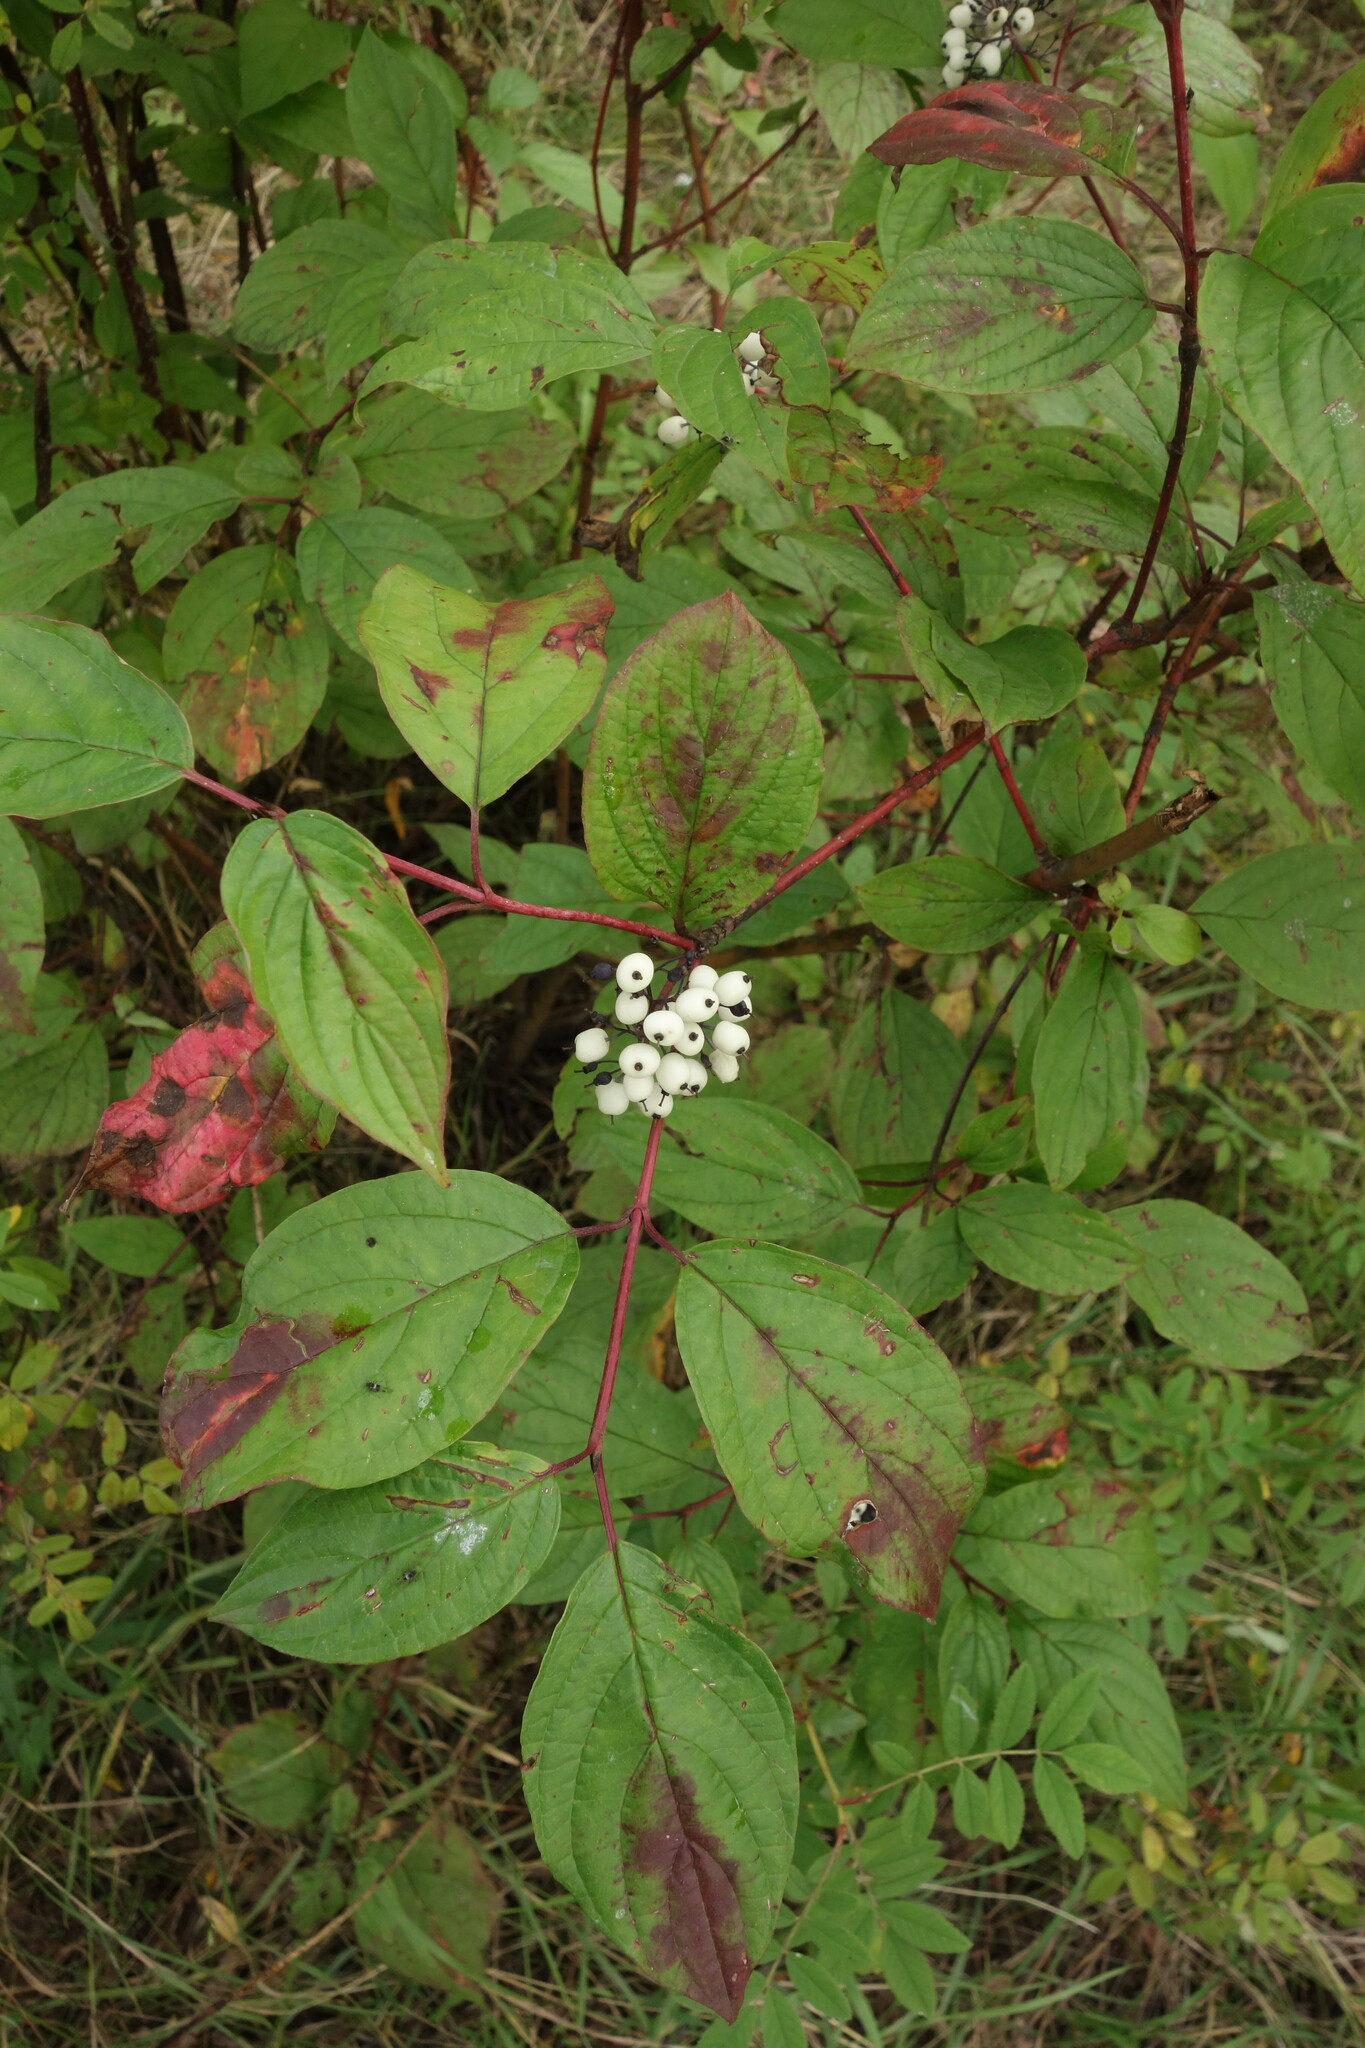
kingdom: Plantae
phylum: Tracheophyta
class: Magnoliopsida
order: Cornales
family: Cornaceae
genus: Cornus
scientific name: Cornus alba
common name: White dogwood
